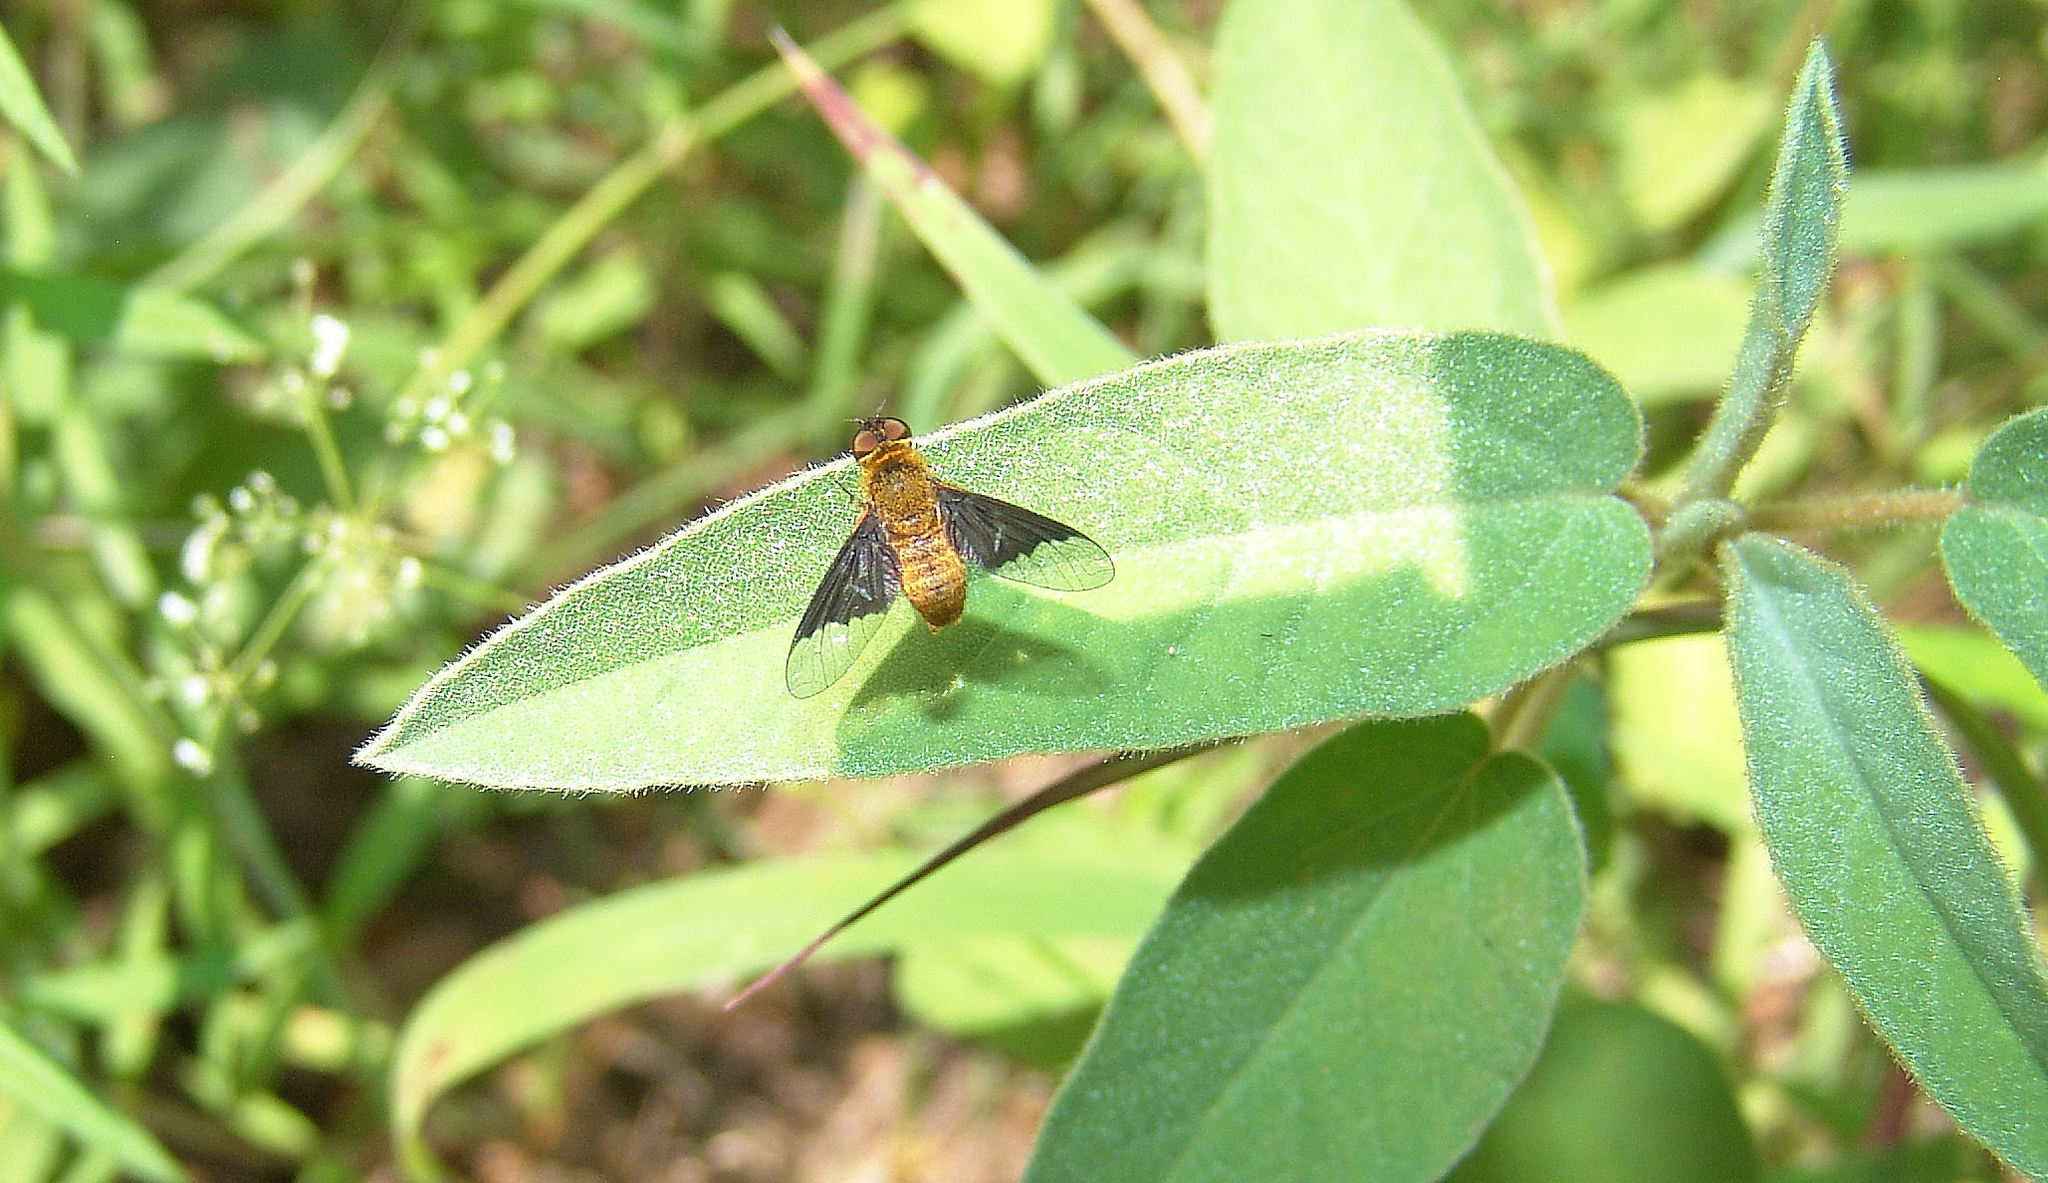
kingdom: Animalia
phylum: Arthropoda
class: Insecta
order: Diptera
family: Bombyliidae
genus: Chrysanthrax
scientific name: Chrysanthrax cypris
